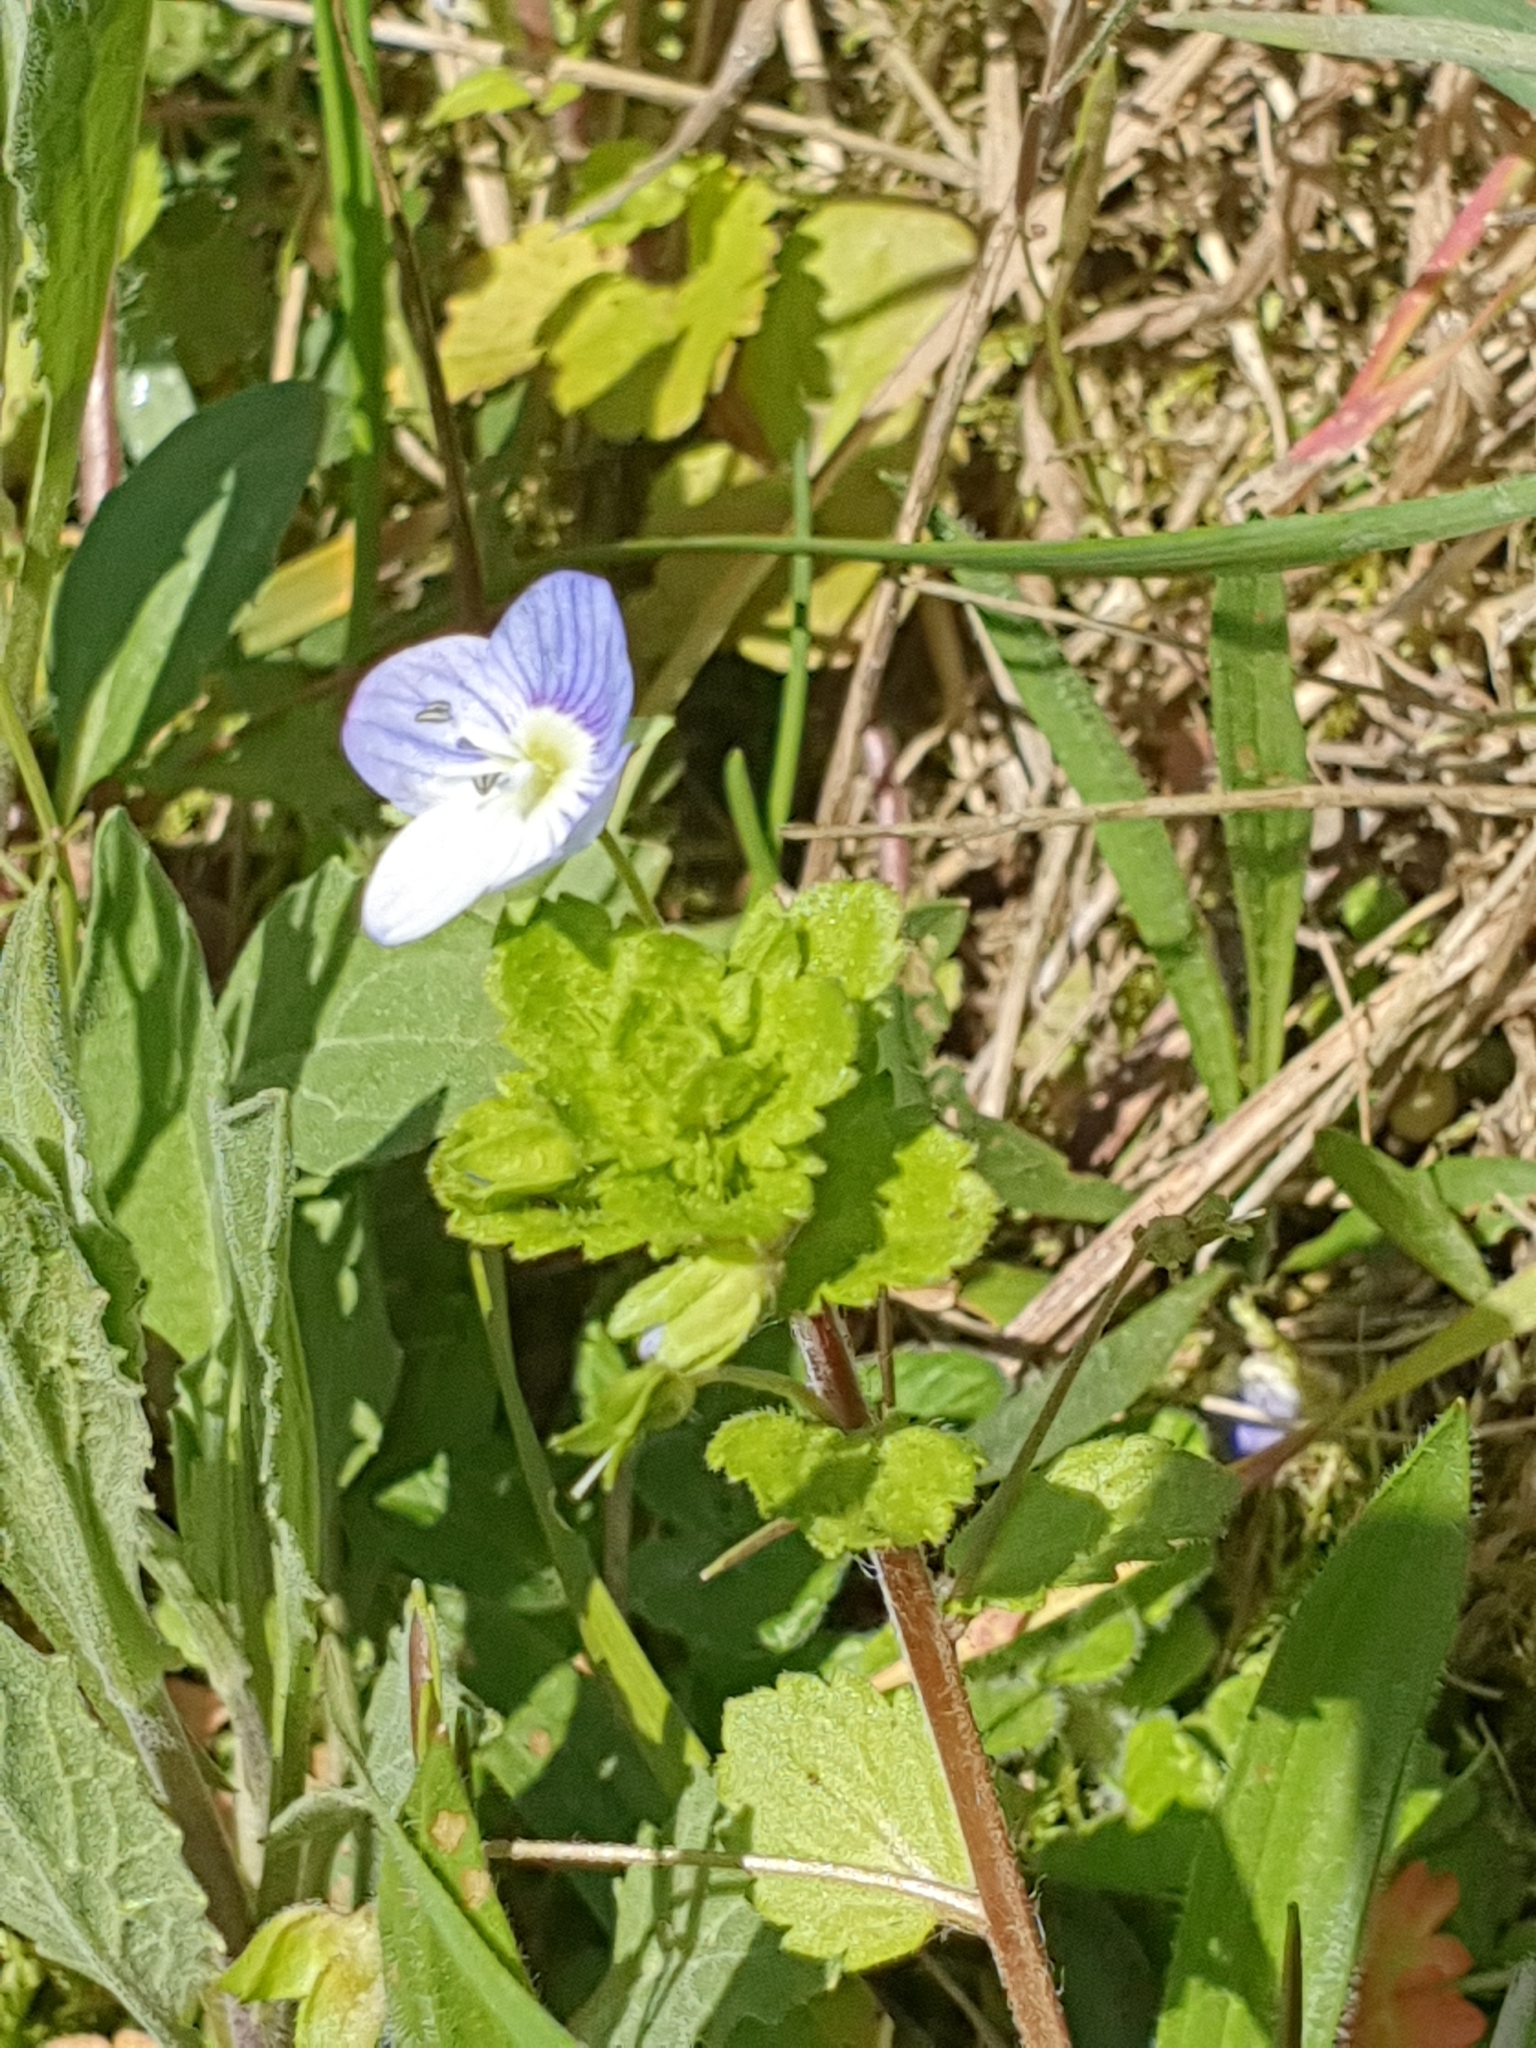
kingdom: Plantae
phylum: Tracheophyta
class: Magnoliopsida
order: Lamiales
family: Plantaginaceae
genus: Veronica
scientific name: Veronica persica
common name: Common field-speedwell
